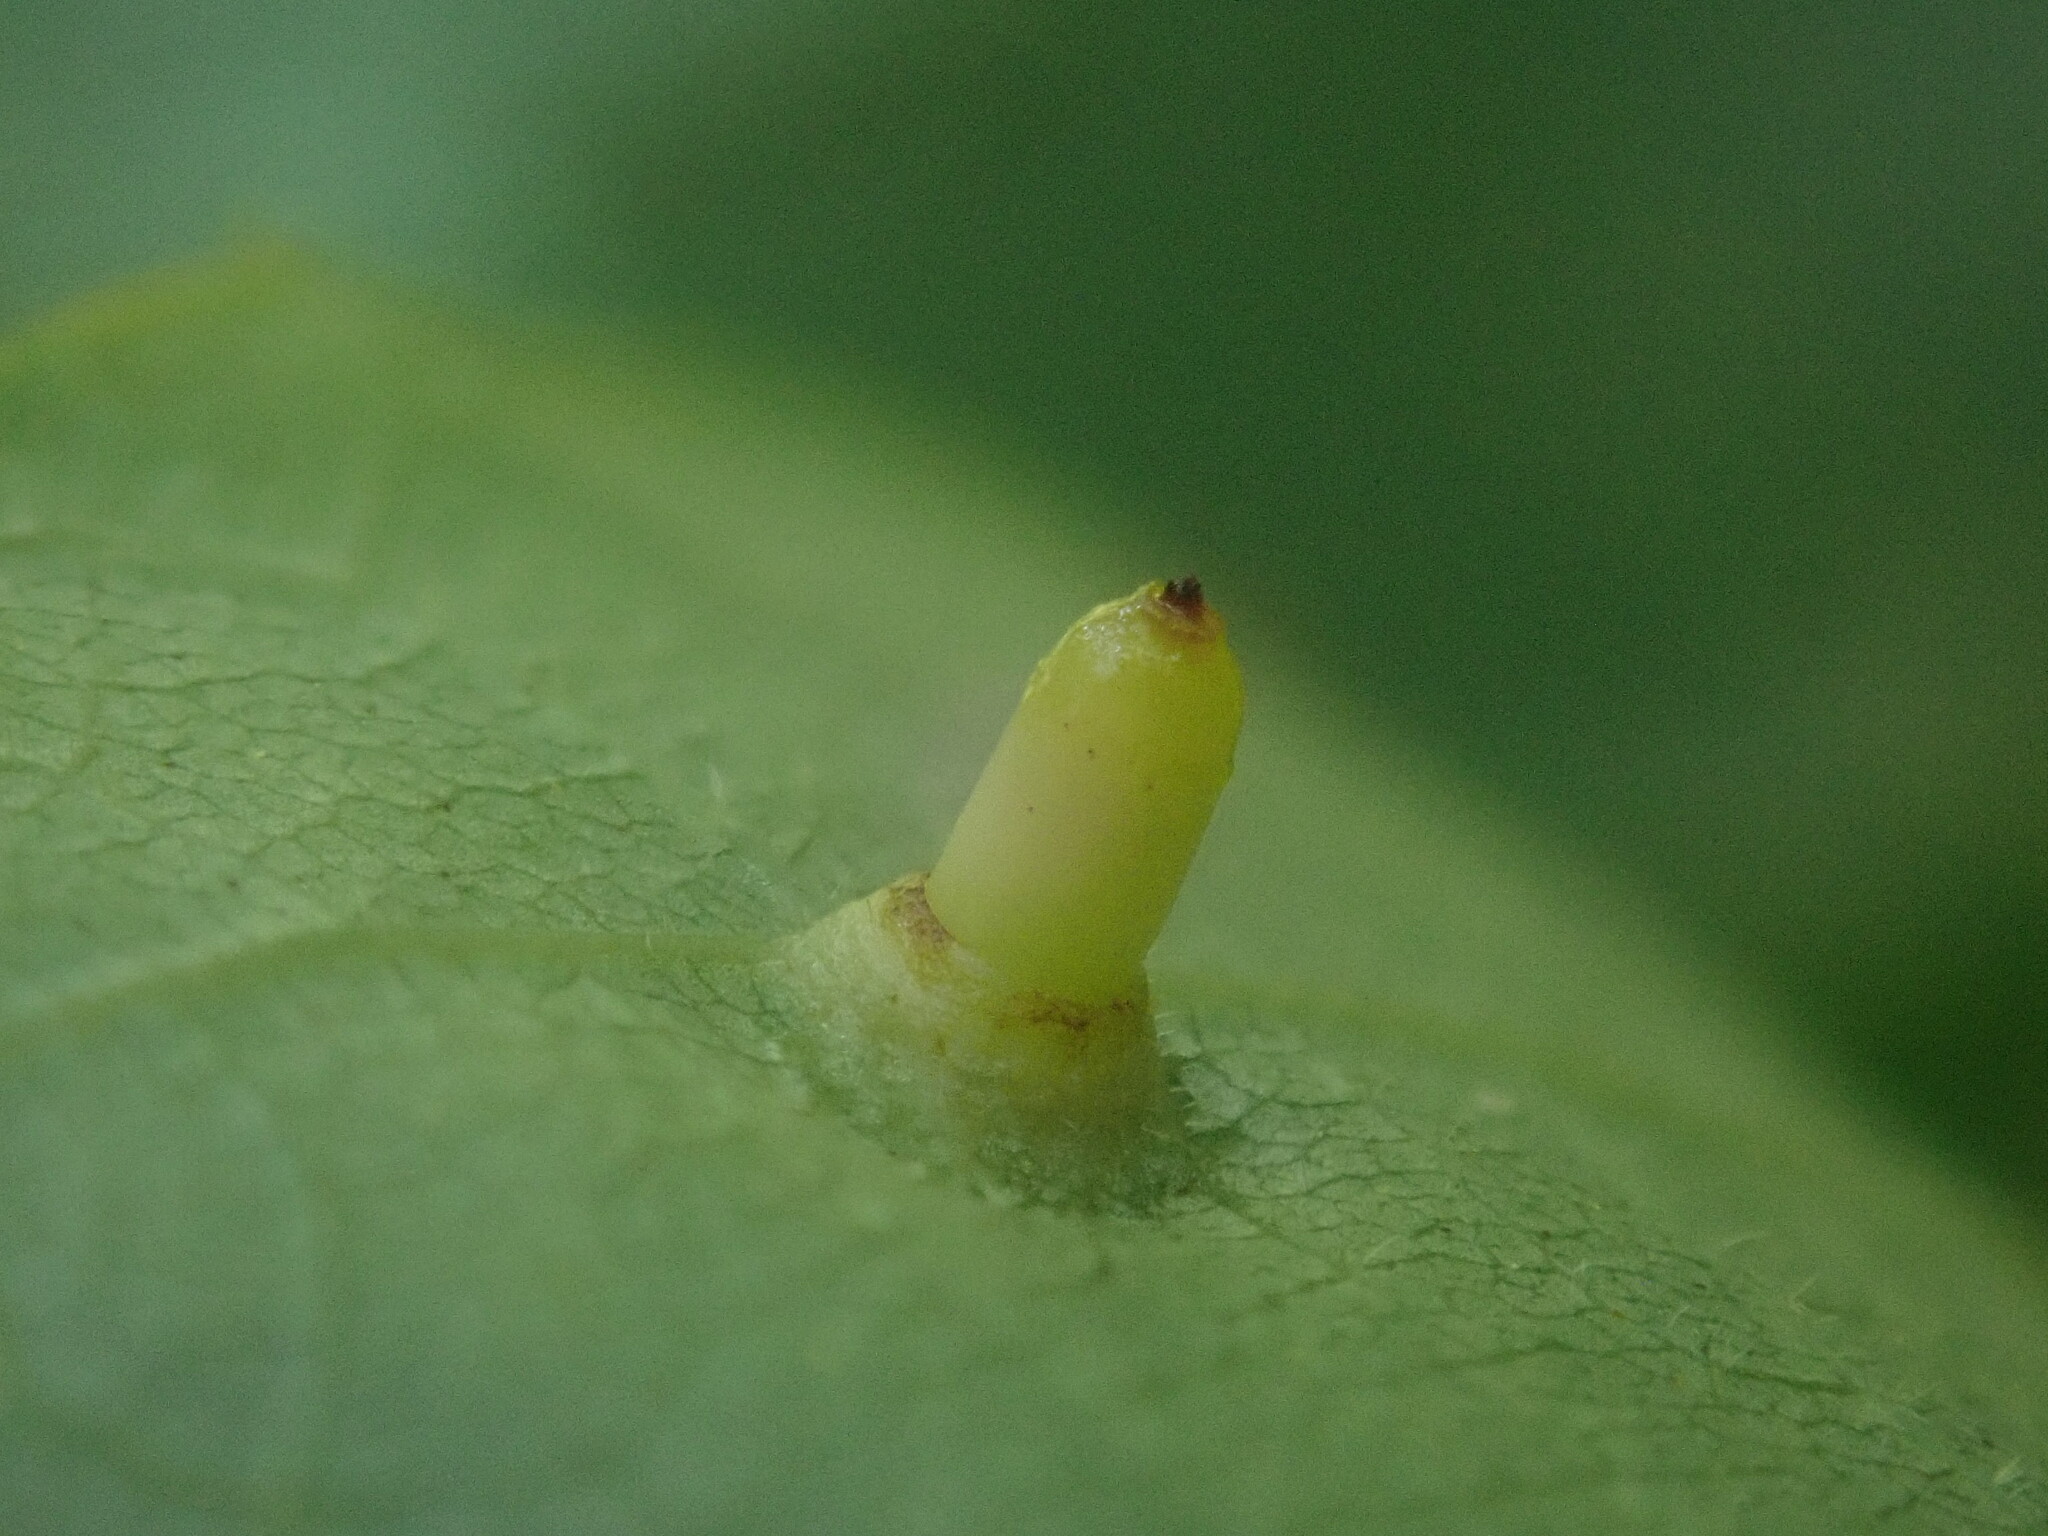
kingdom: Animalia
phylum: Arthropoda
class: Insecta
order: Diptera
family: Cecidomyiidae
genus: Caryomyia
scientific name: Caryomyia tubicola
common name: Hickory bullet gall midge
